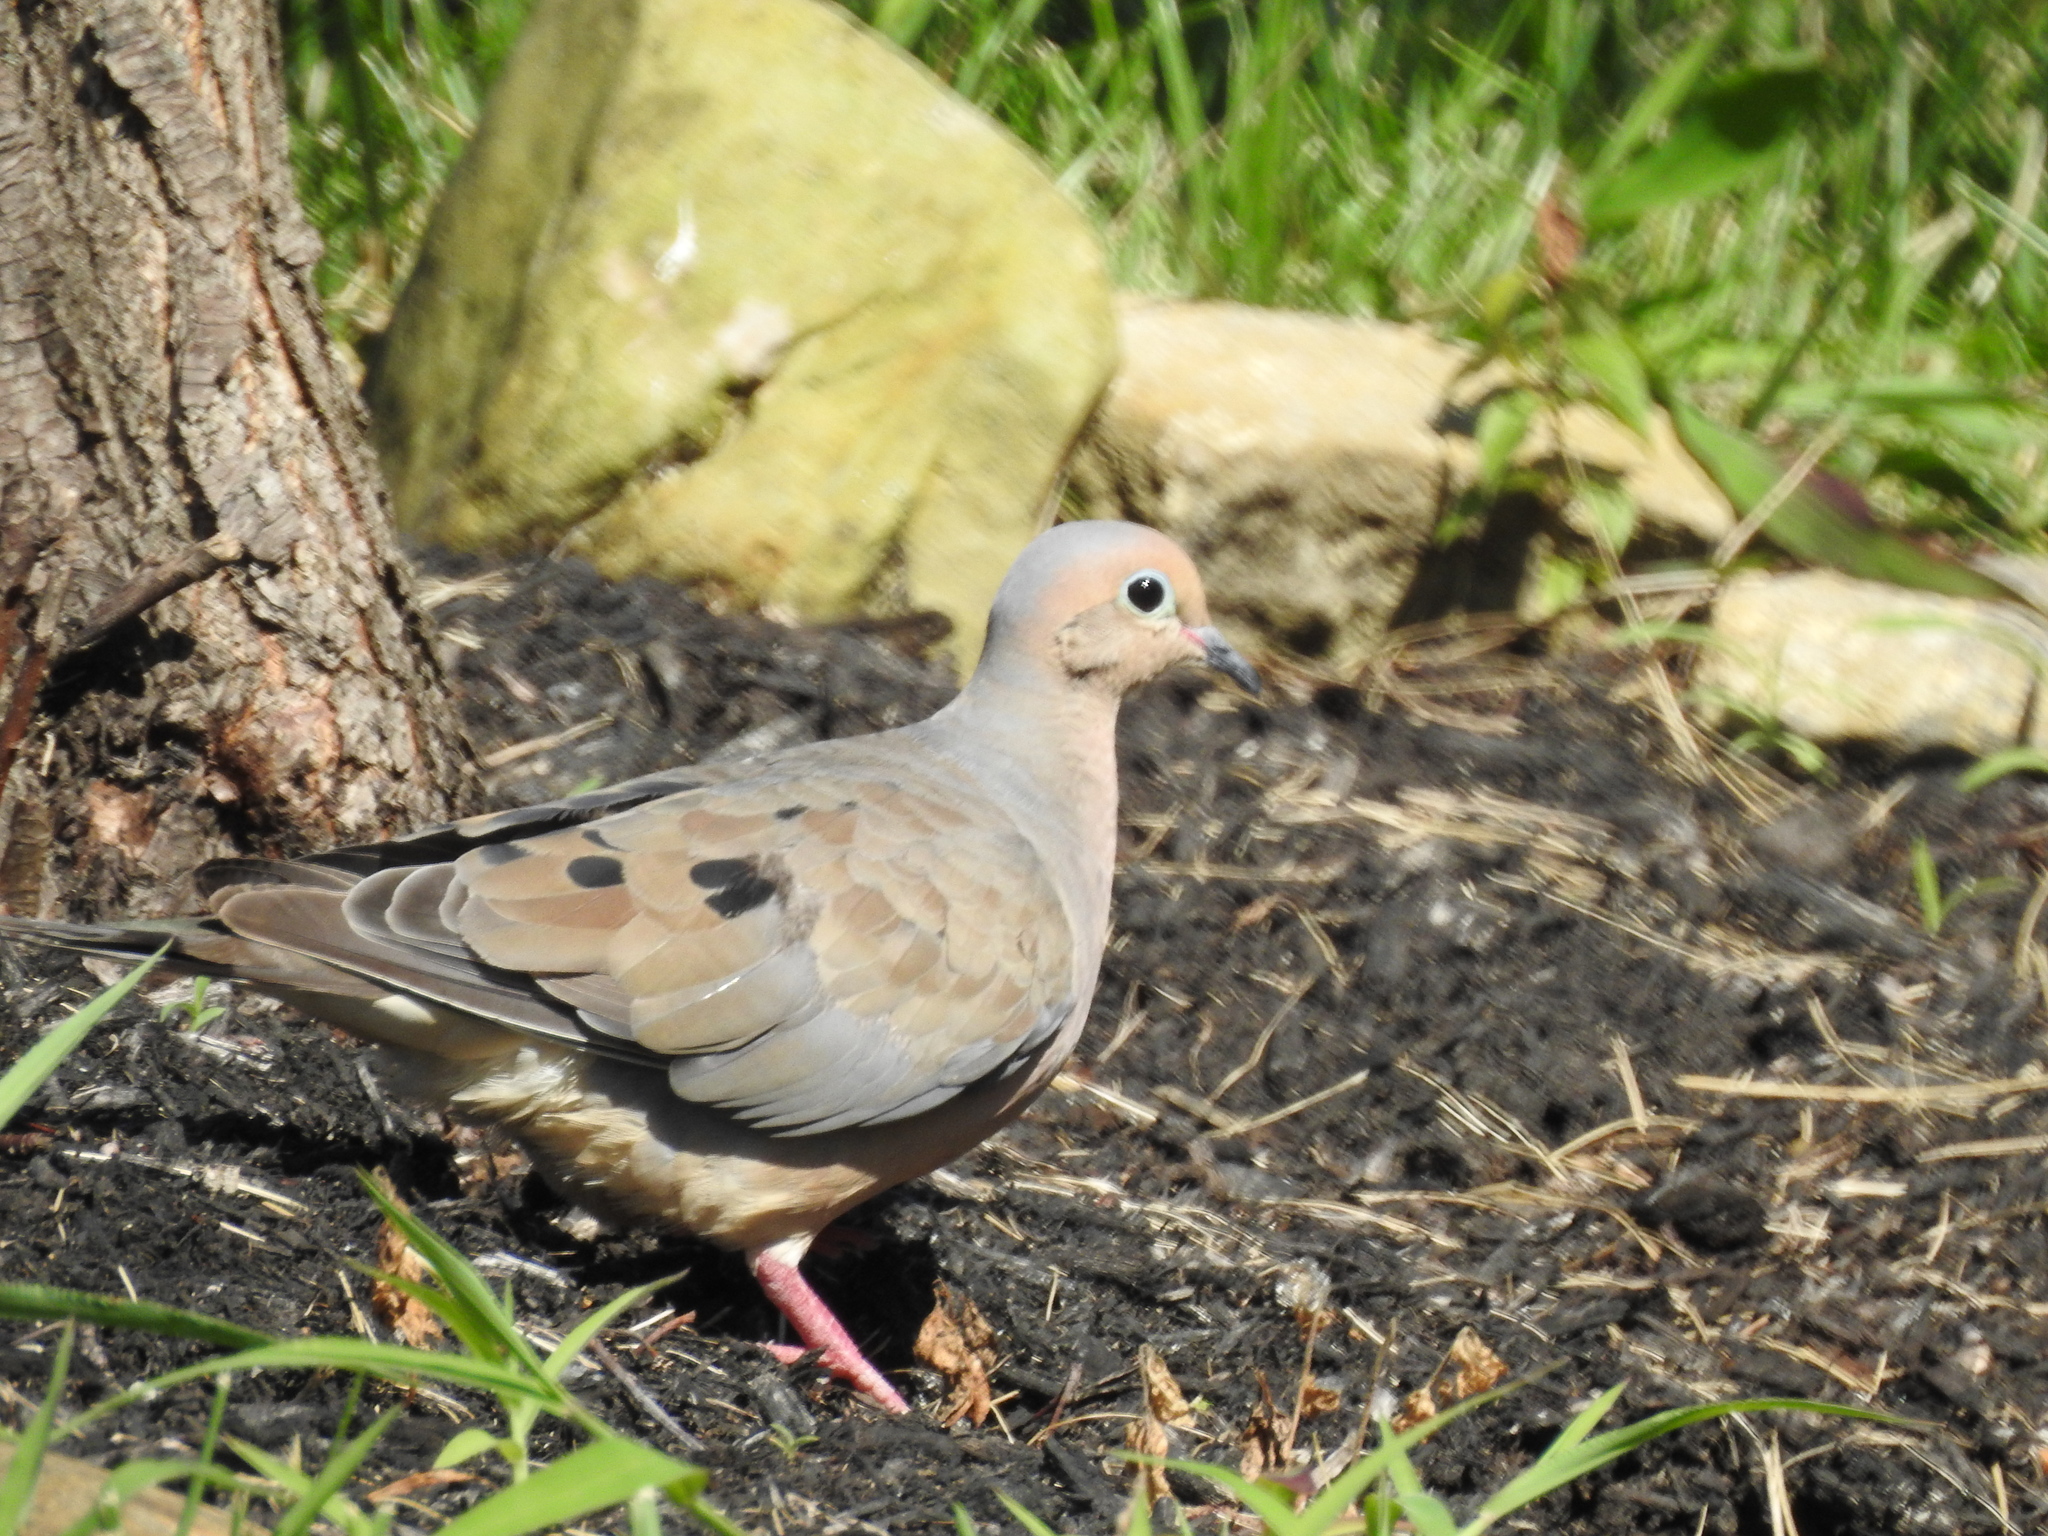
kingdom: Animalia
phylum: Chordata
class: Aves
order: Columbiformes
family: Columbidae
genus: Zenaida
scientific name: Zenaida macroura
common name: Mourning dove
